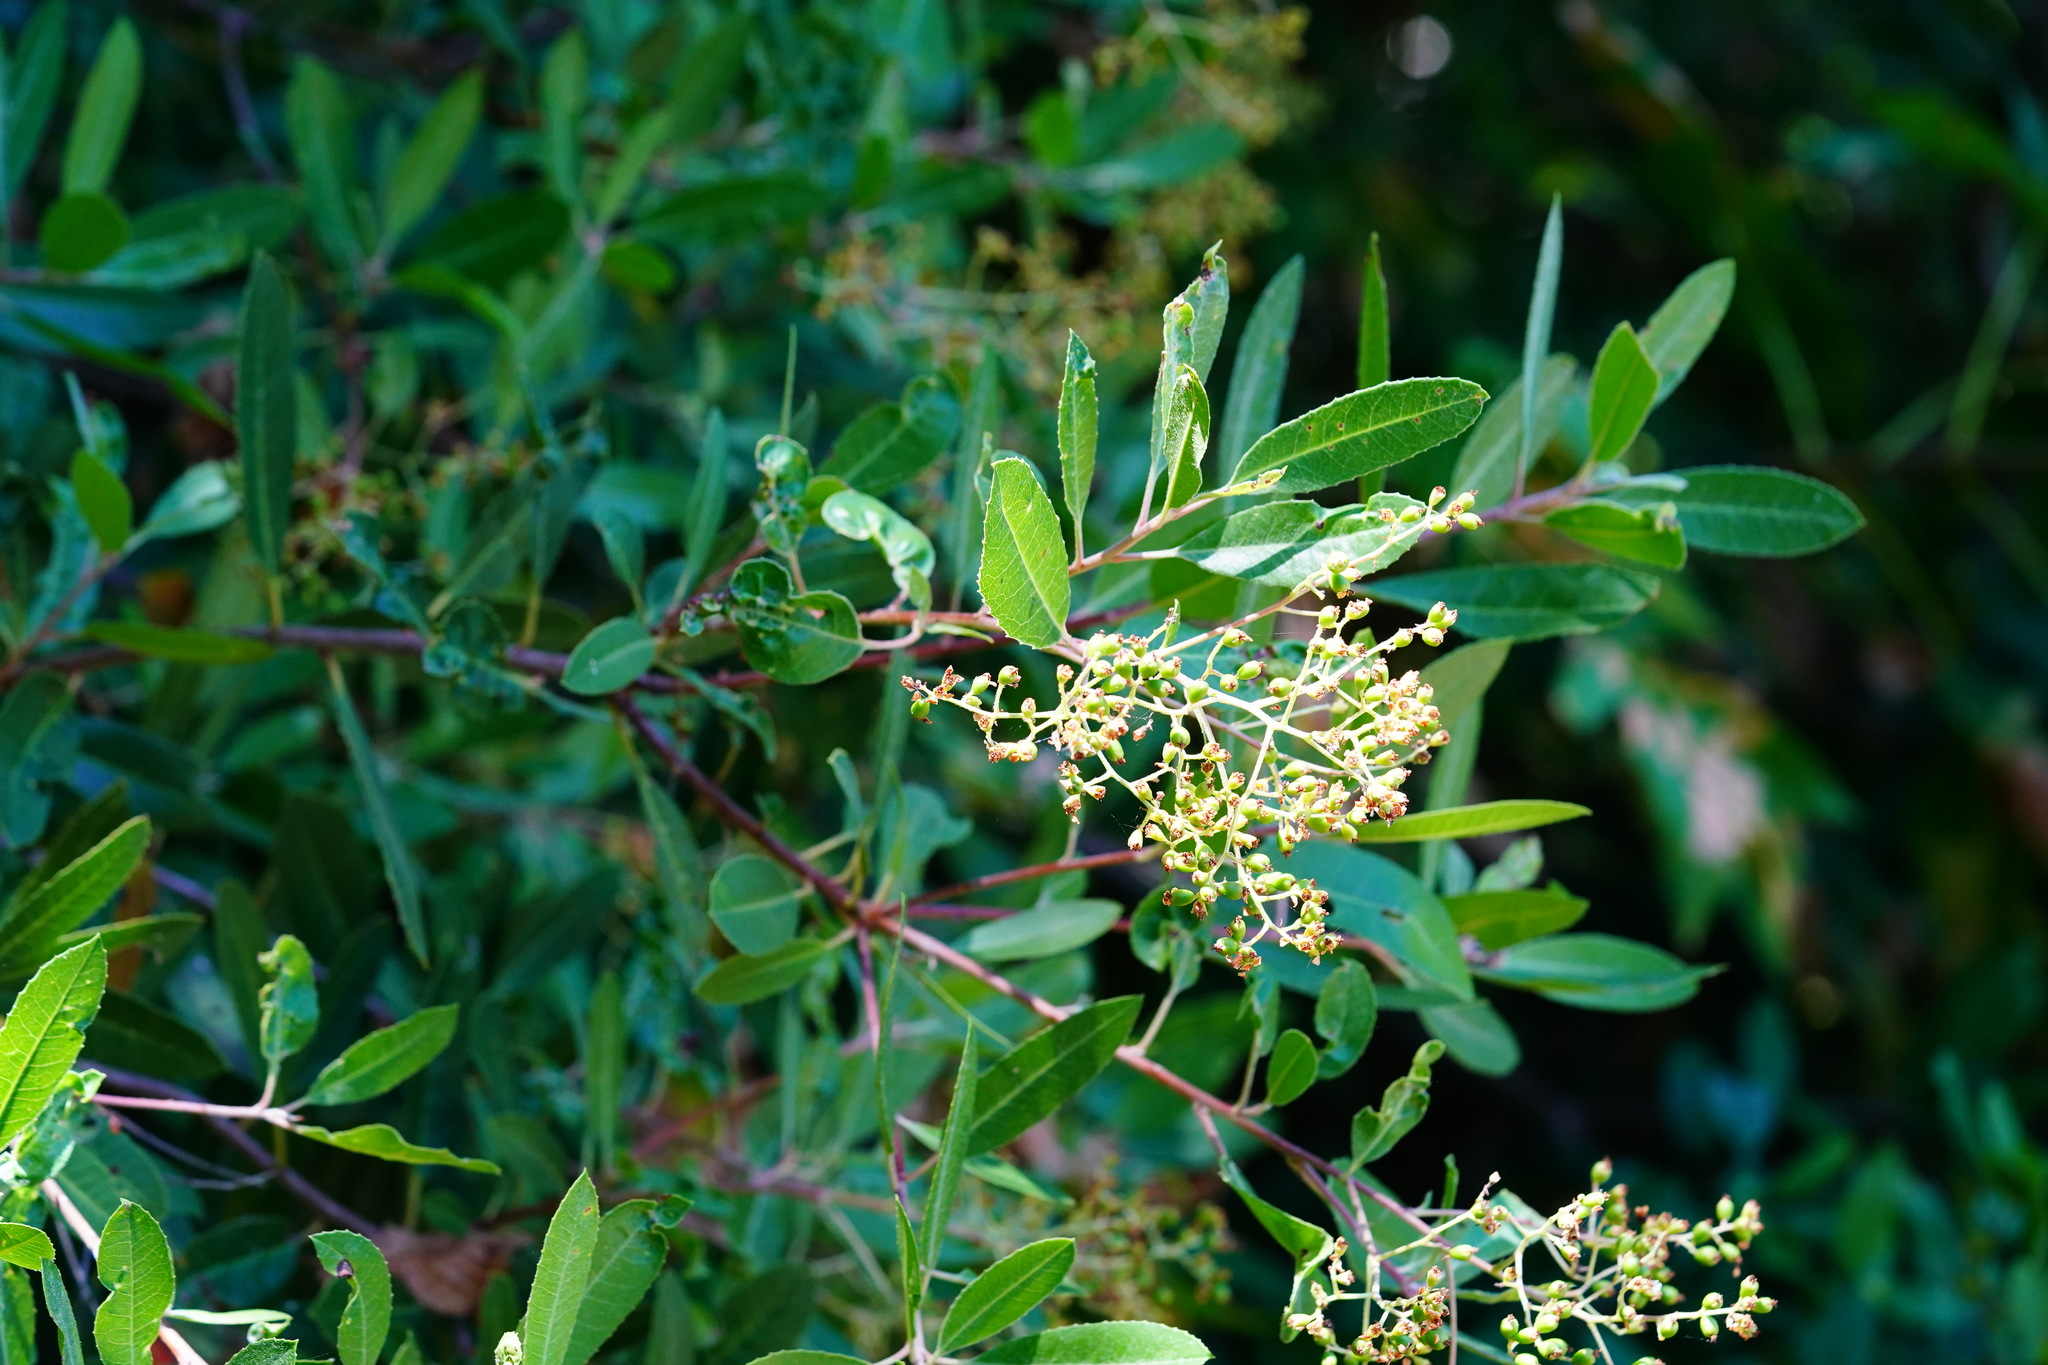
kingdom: Plantae
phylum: Tracheophyta
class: Magnoliopsida
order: Rosales
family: Rosaceae
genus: Heteromeles
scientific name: Heteromeles arbutifolia
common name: California-holly
